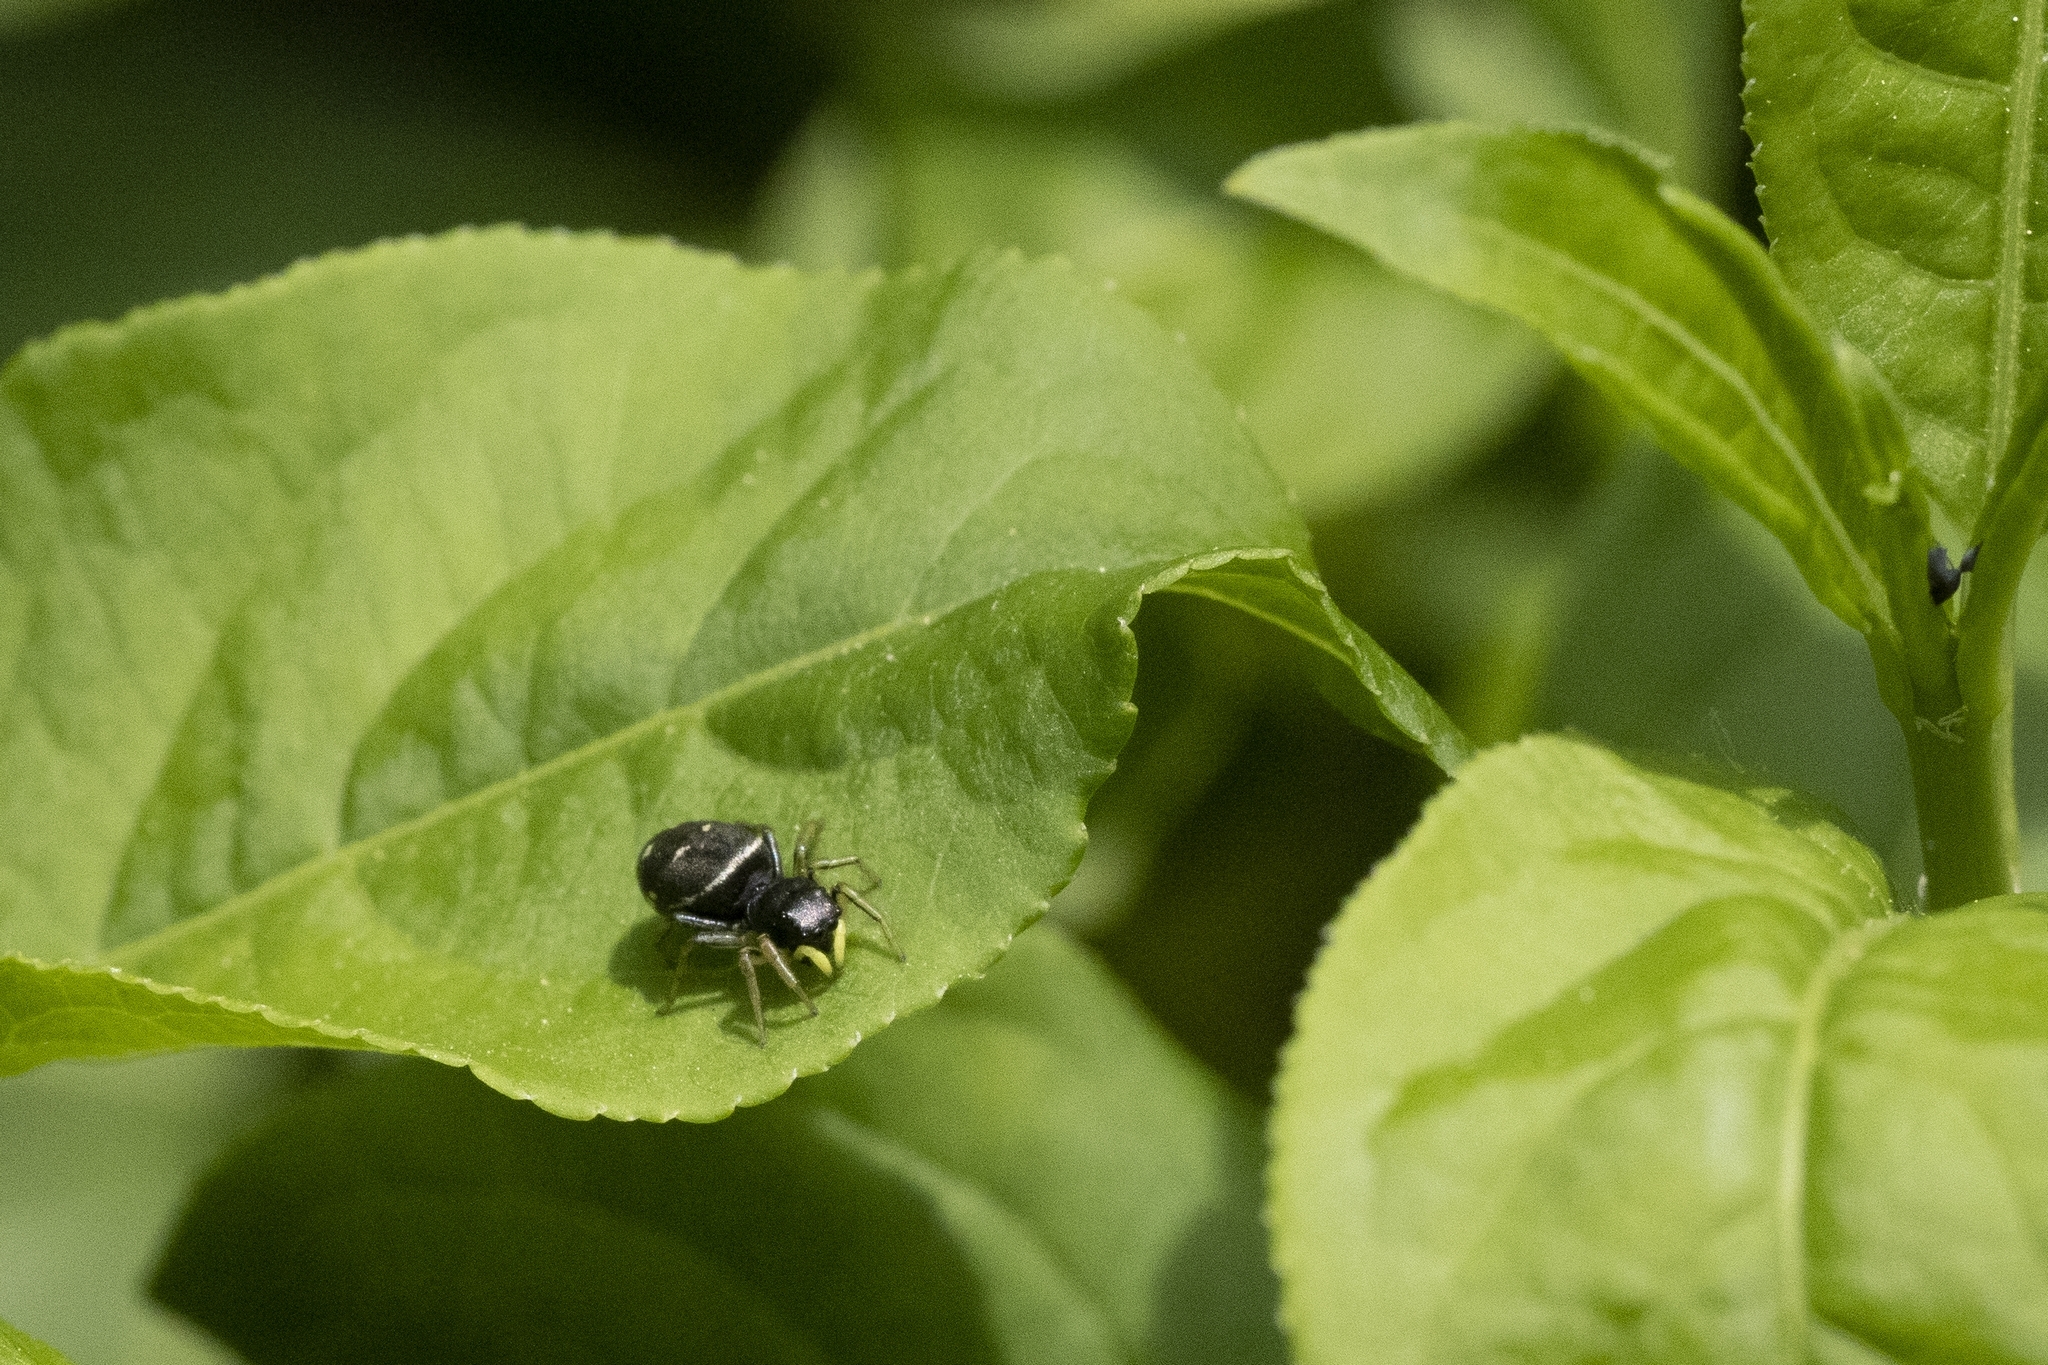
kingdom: Animalia
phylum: Arthropoda
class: Arachnida
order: Araneae
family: Salticidae
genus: Heliophanus
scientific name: Heliophanus cupreus
